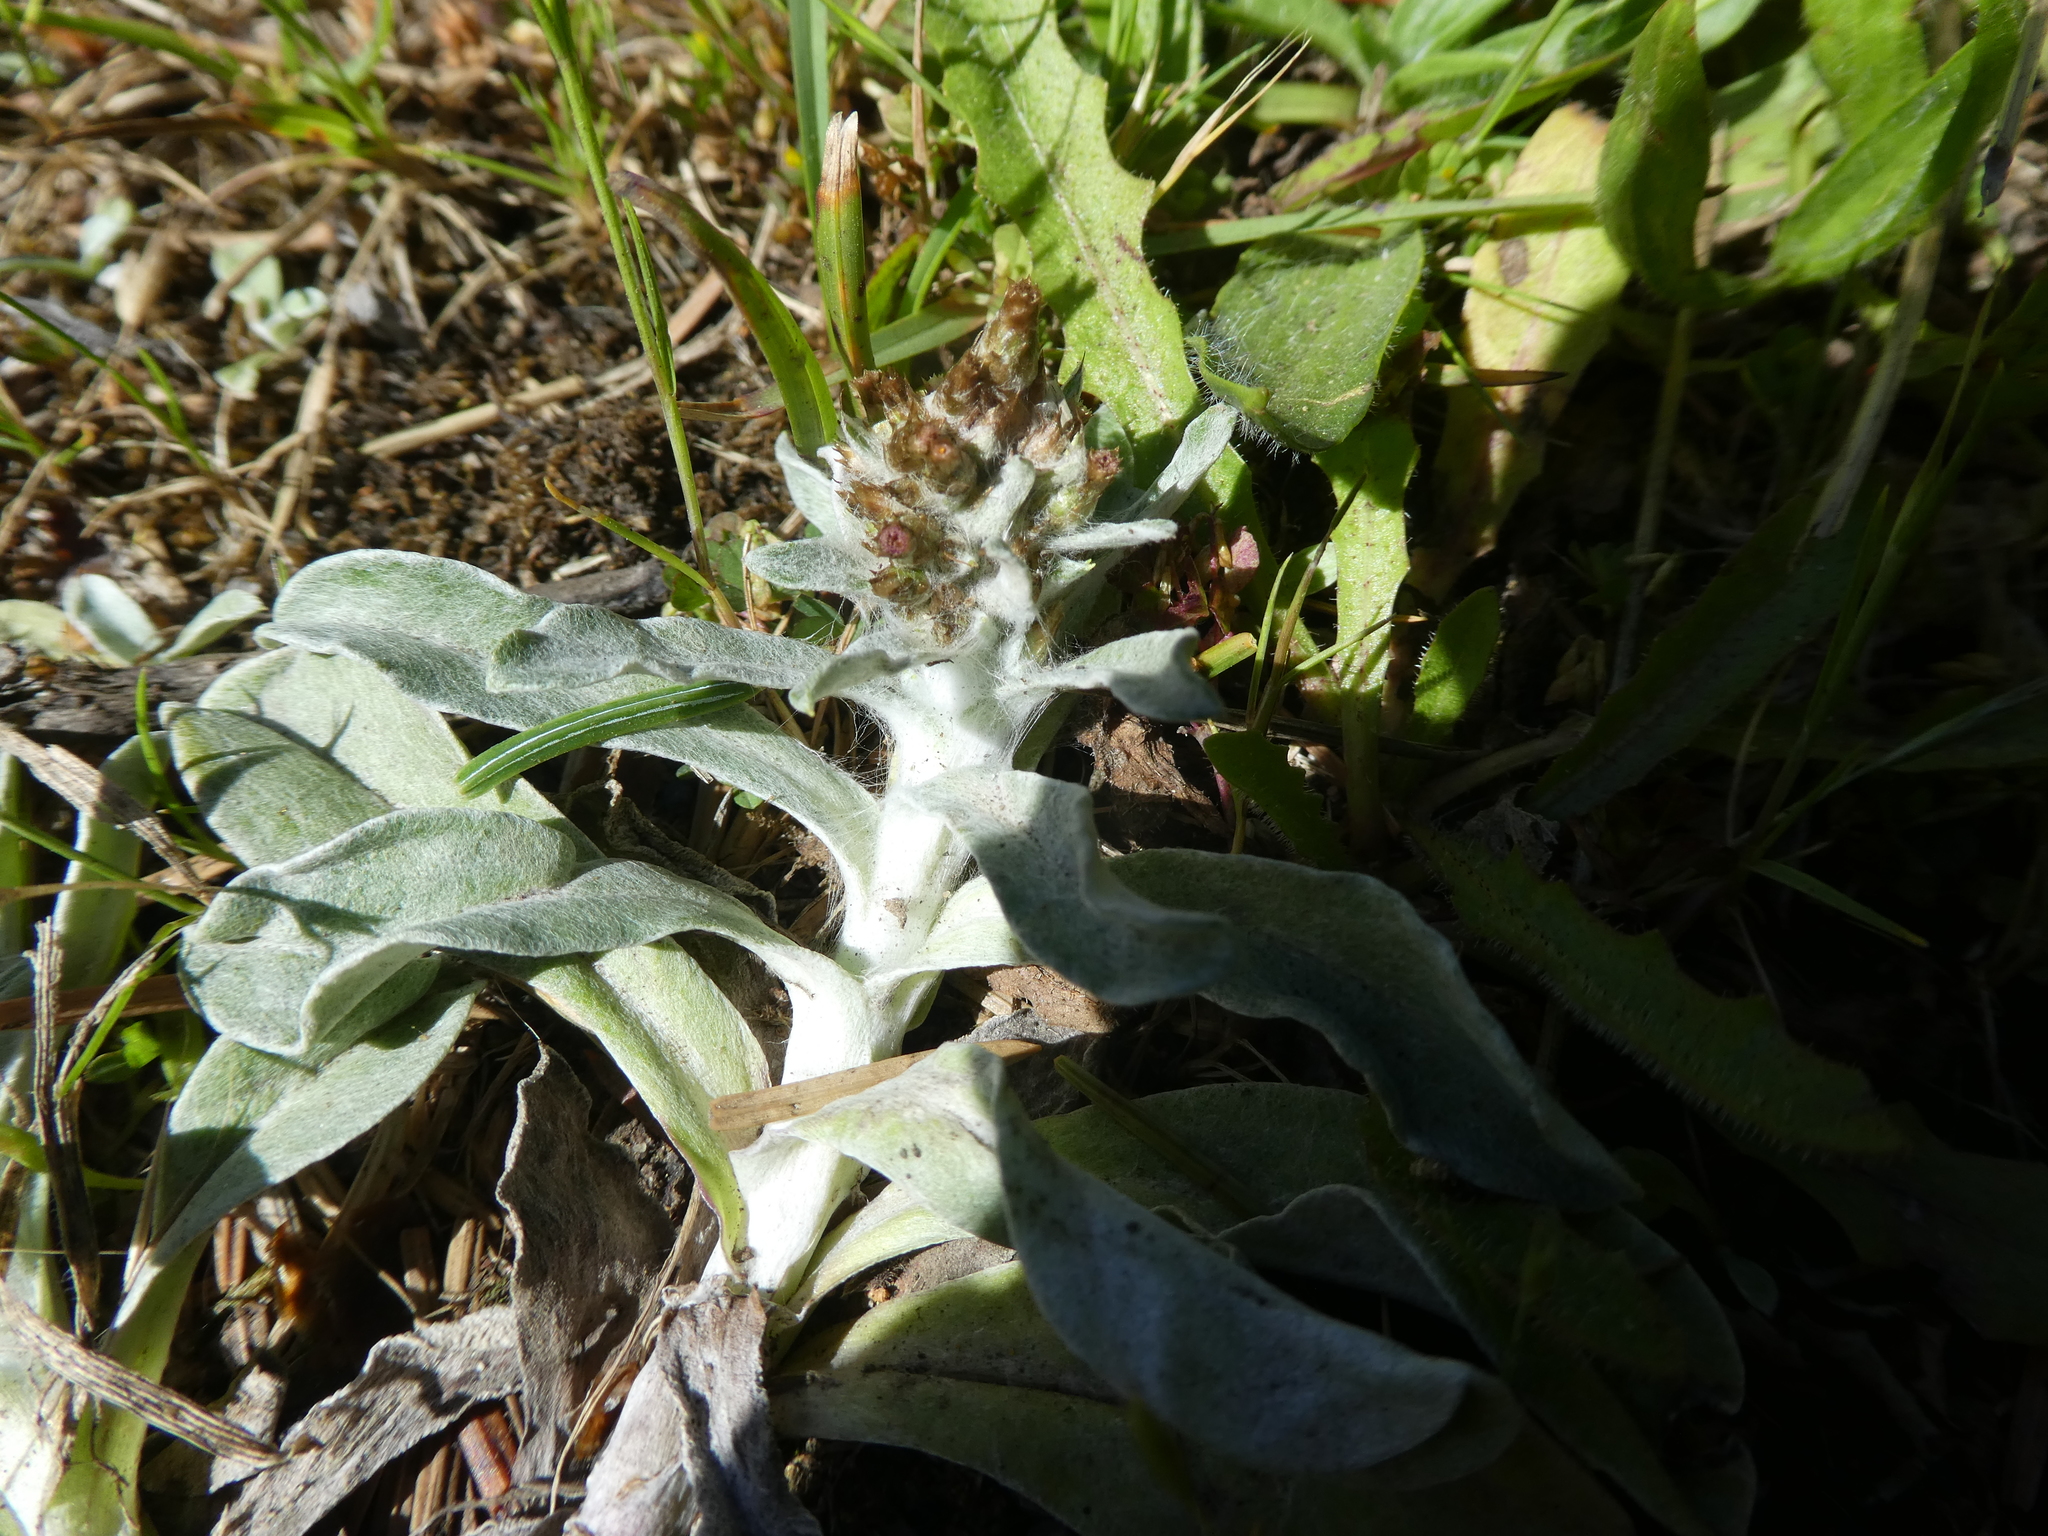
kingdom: Plantae
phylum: Tracheophyta
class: Magnoliopsida
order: Asterales
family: Asteraceae
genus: Gamochaeta
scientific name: Gamochaeta ustulata
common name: Pacific cudweed
